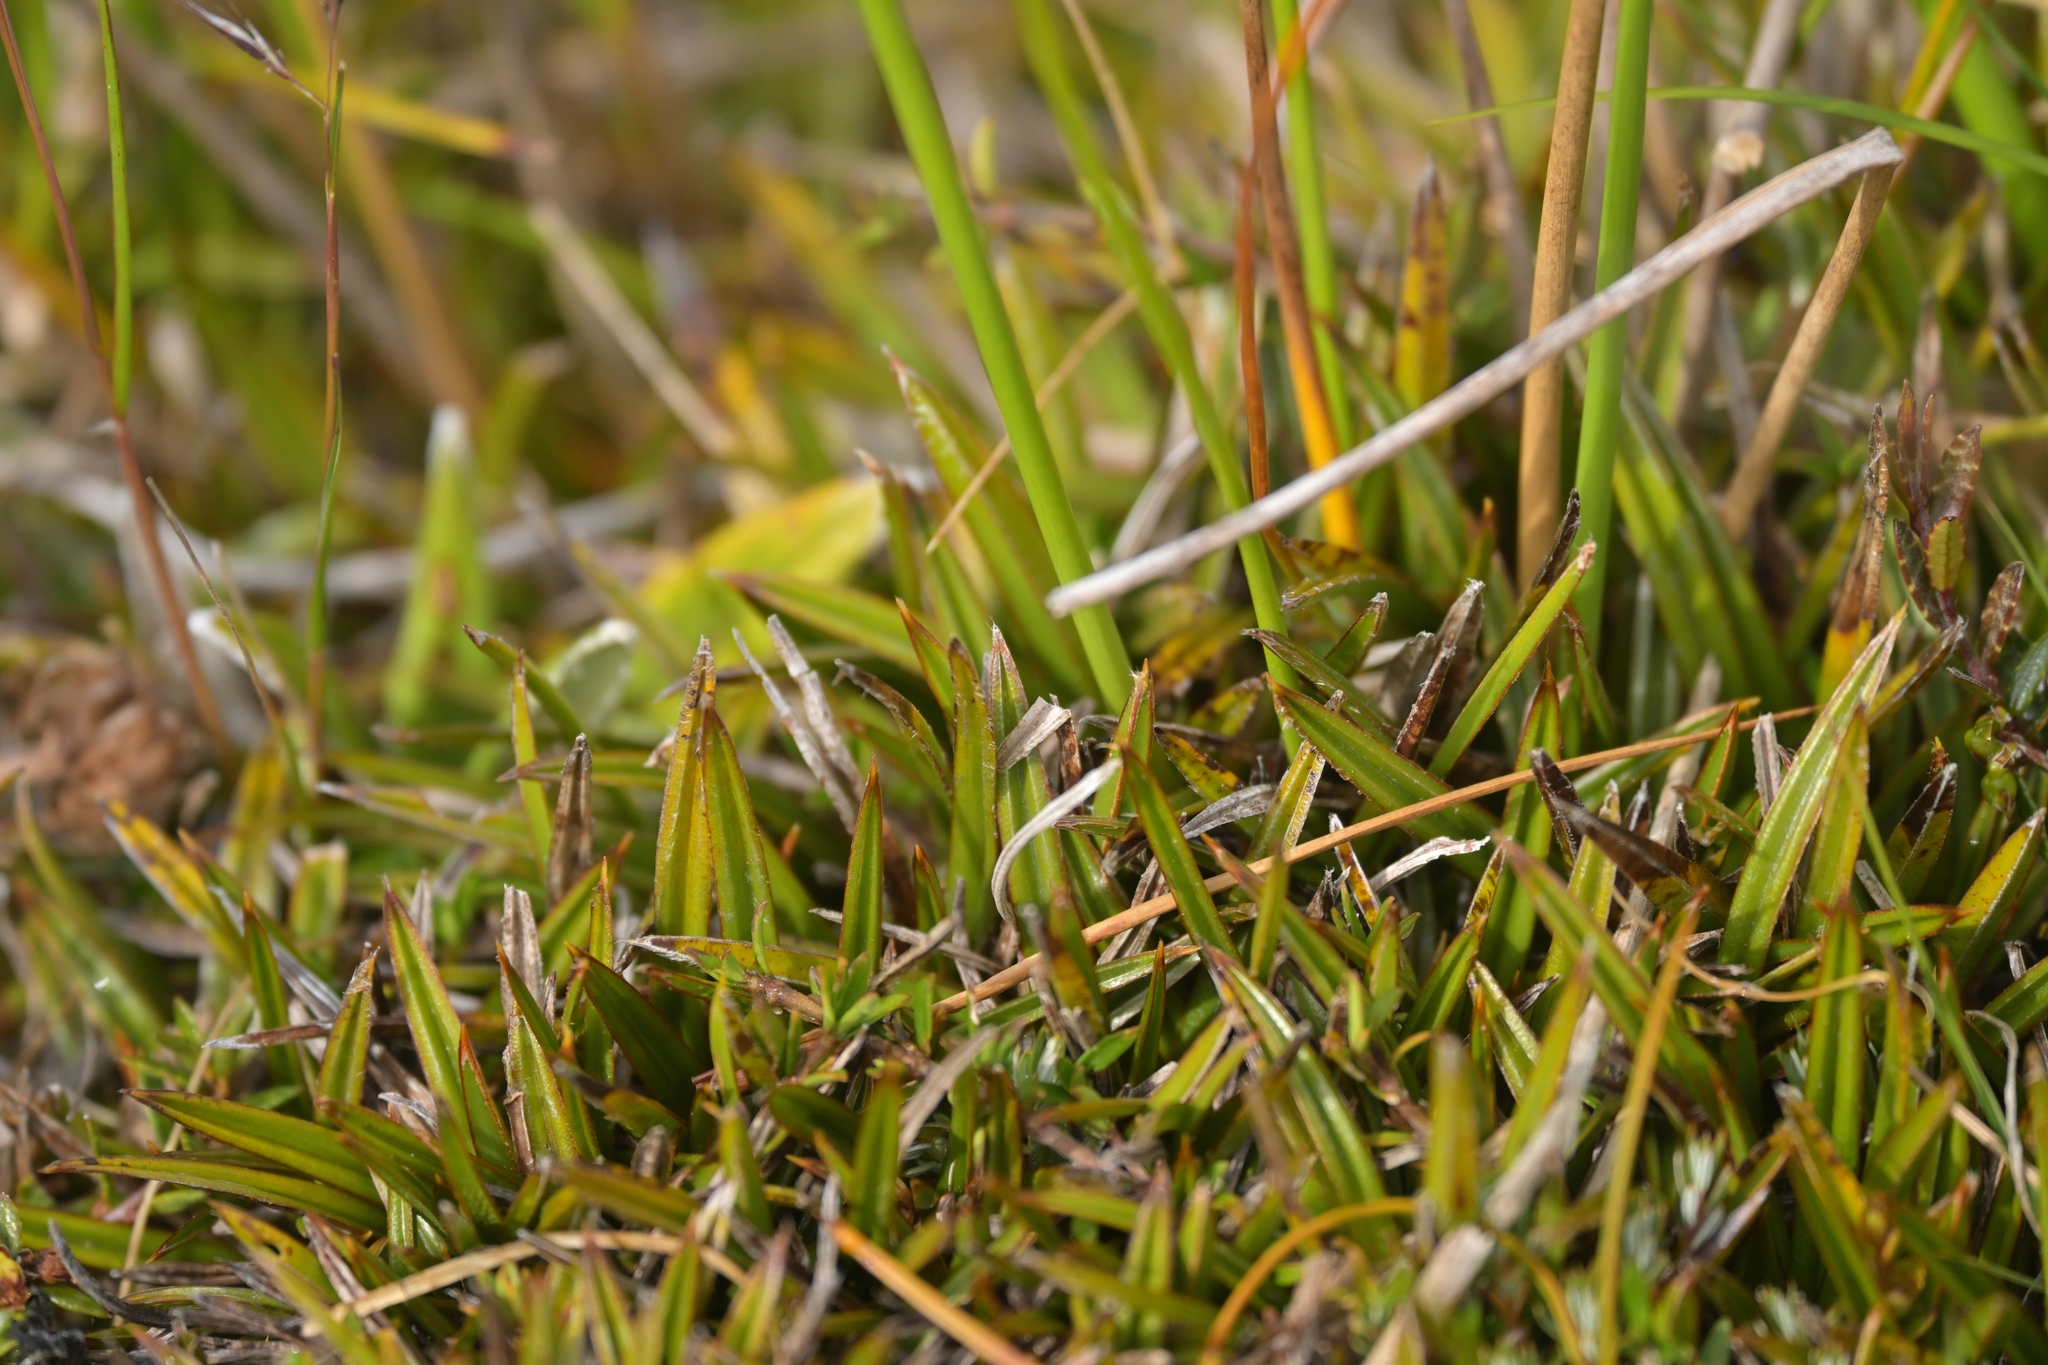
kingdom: Plantae
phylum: Tracheophyta
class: Liliopsida
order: Asparagales
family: Asteliaceae
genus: Astelia
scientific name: Astelia linearis
